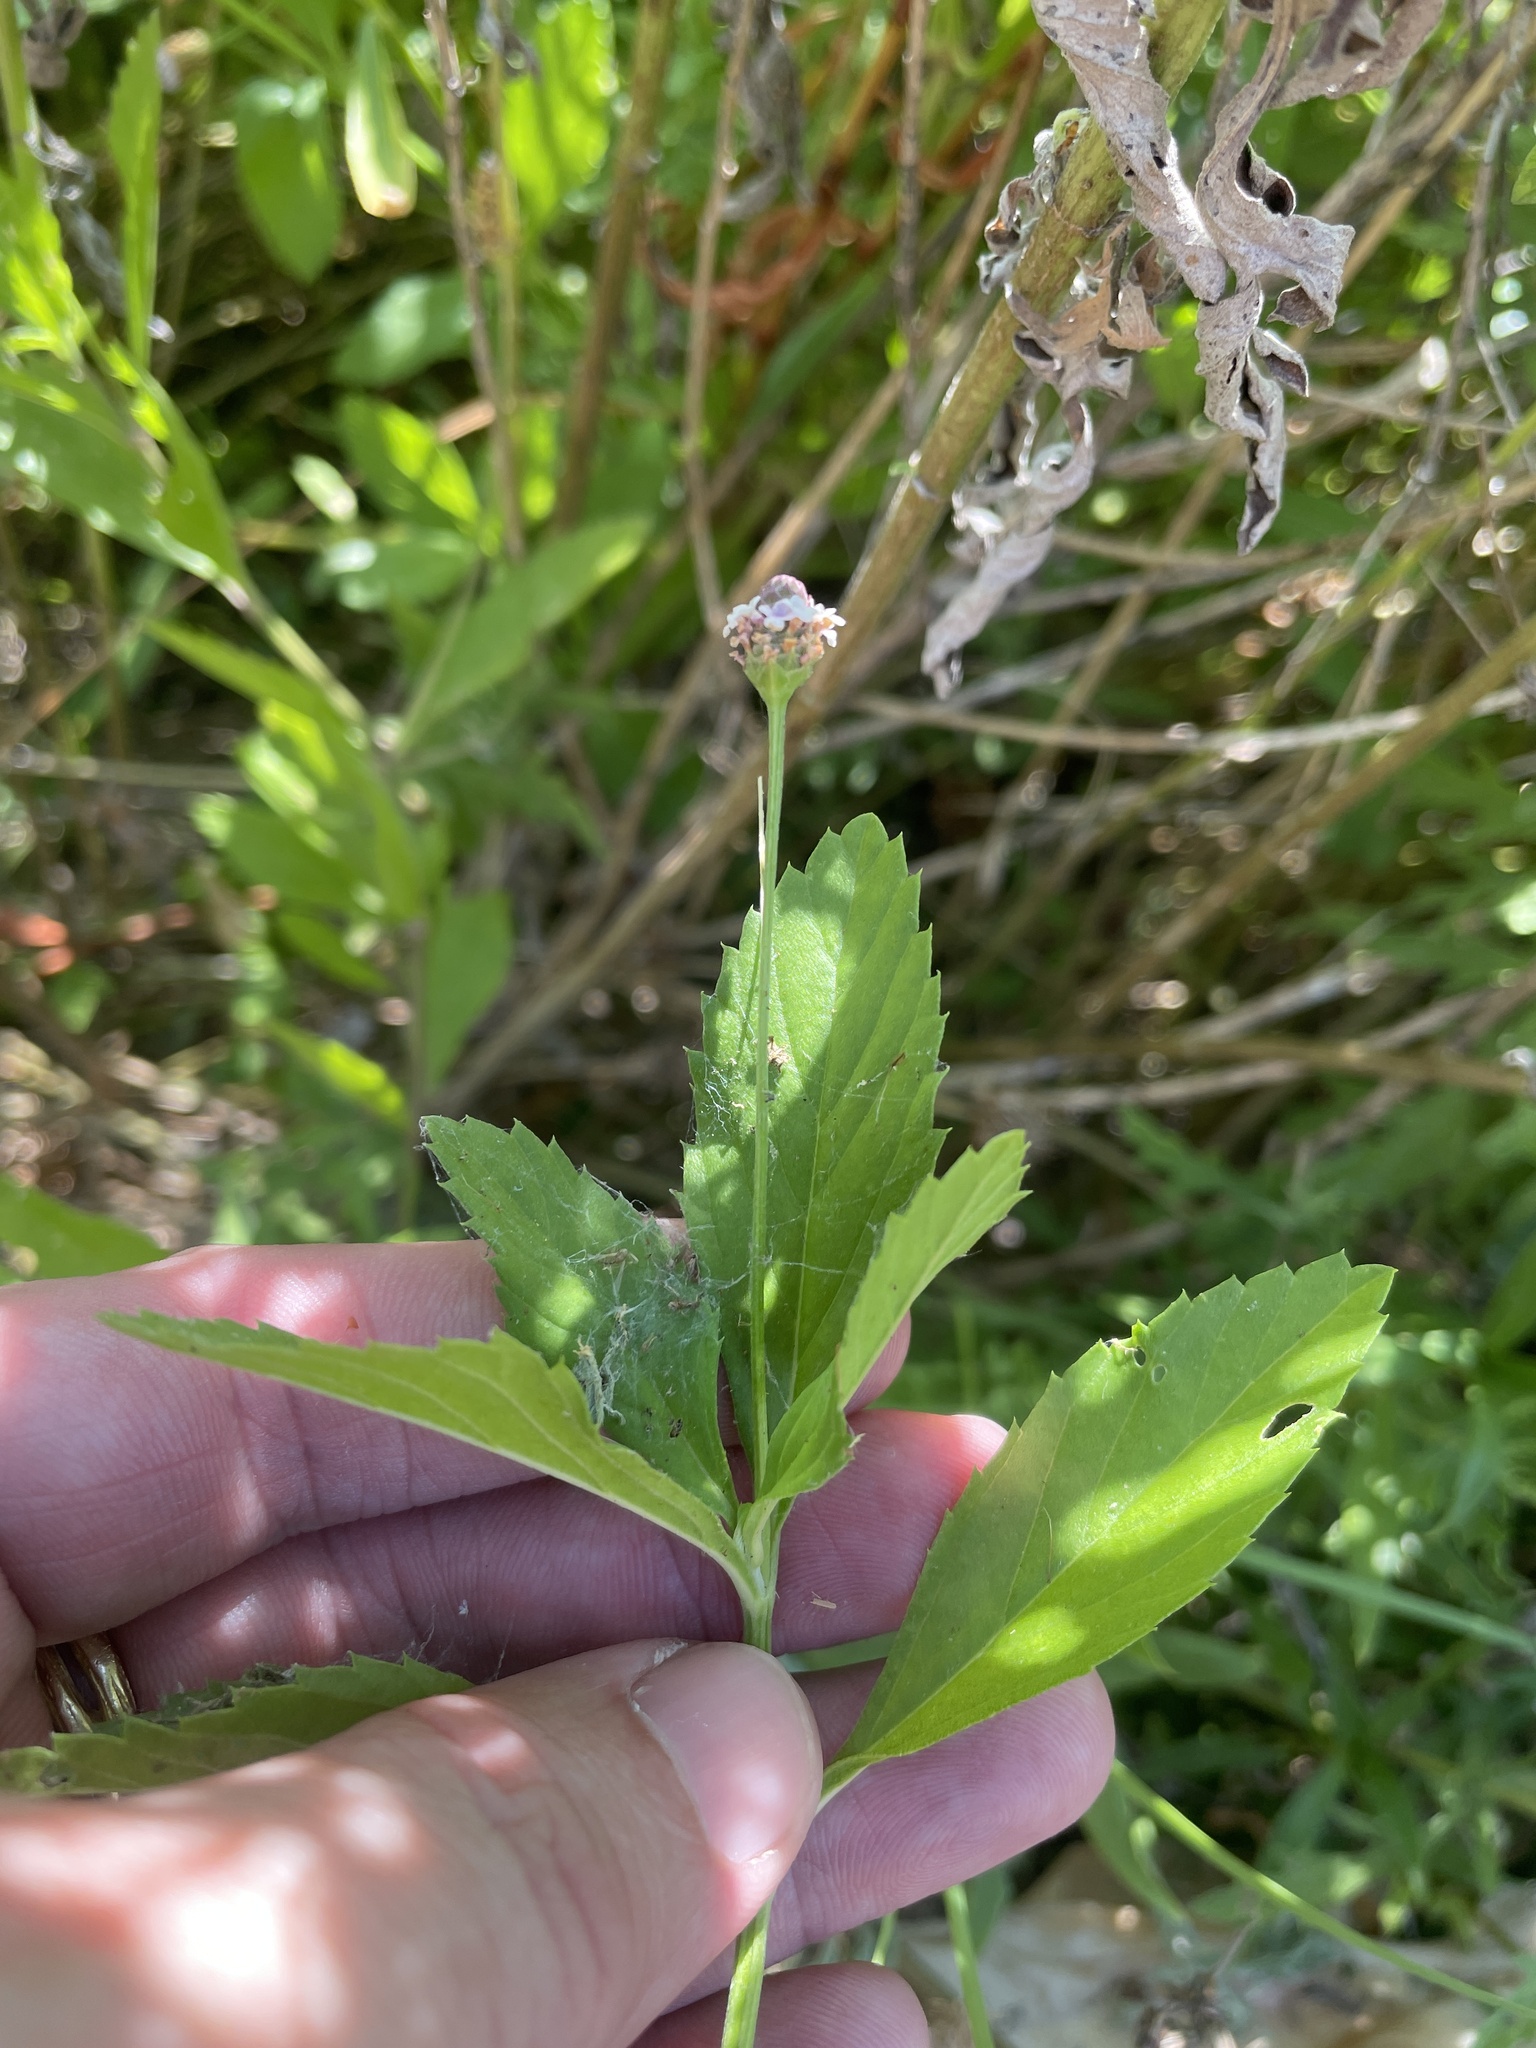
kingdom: Plantae
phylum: Tracheophyta
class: Magnoliopsida
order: Lamiales
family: Verbenaceae
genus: Phyla
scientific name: Phyla lanceolata
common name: Northern fogfruit
